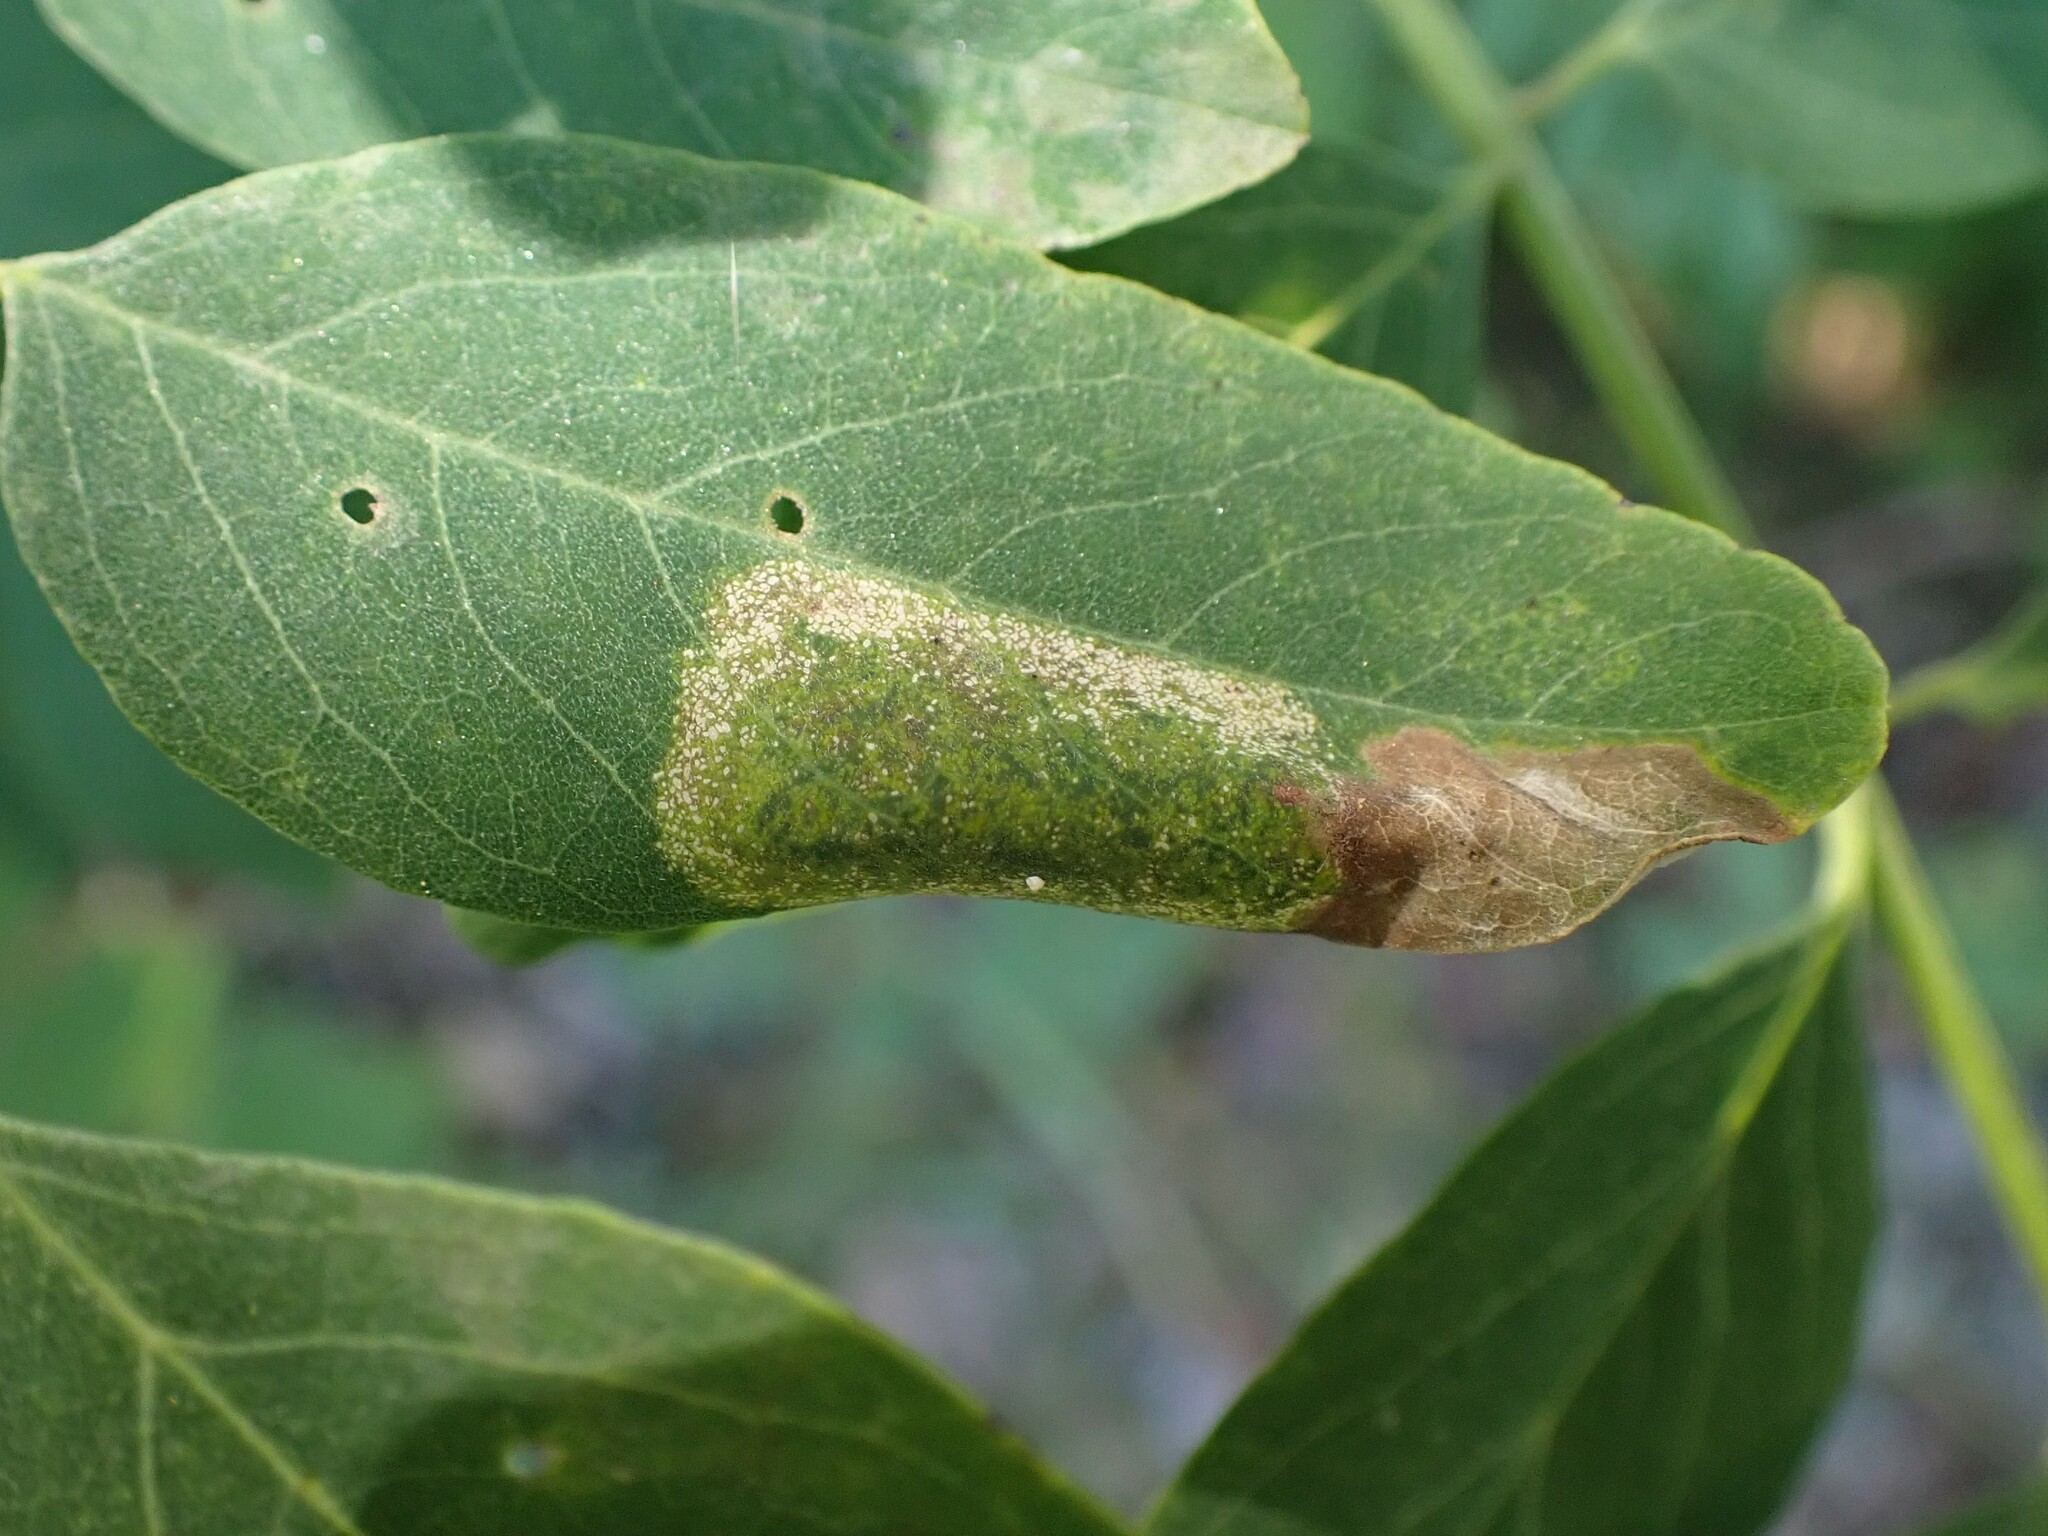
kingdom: Animalia
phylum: Arthropoda
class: Insecta
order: Lepidoptera
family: Gracillariidae
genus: Macrosaccus
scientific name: Macrosaccus robiniella
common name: Leaf blotch miner moth
